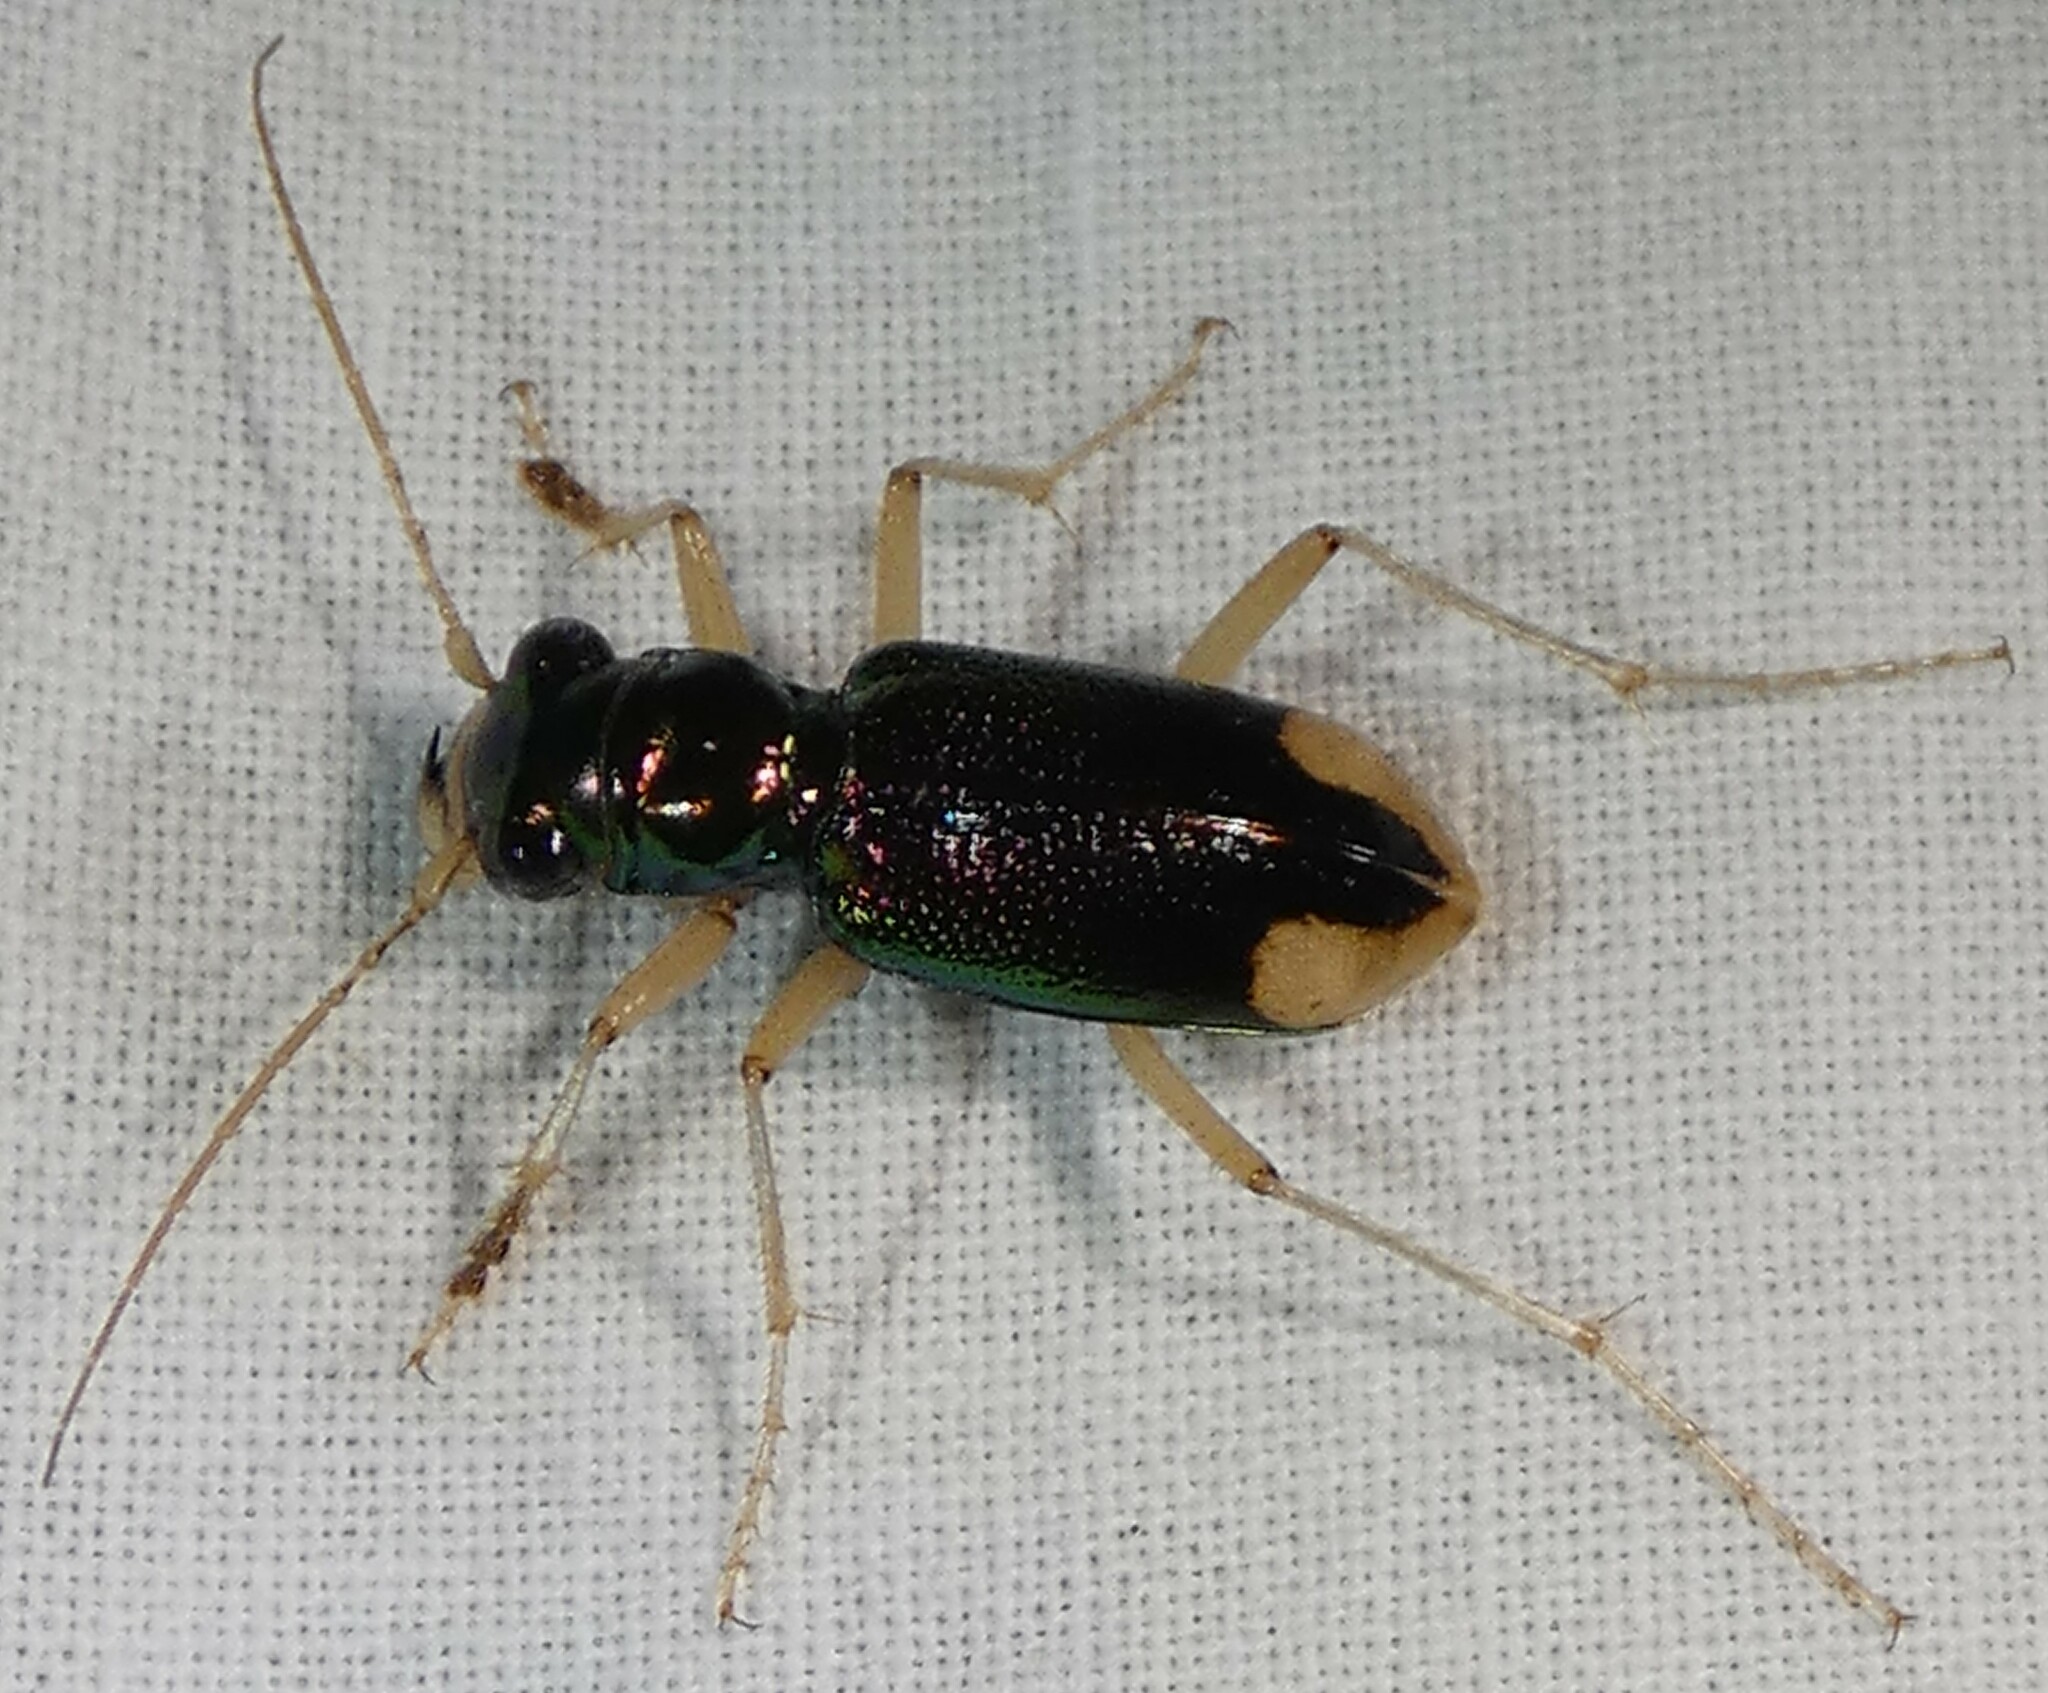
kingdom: Animalia
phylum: Arthropoda
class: Insecta
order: Coleoptera
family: Carabidae
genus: Tetracha
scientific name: Tetracha carolina
